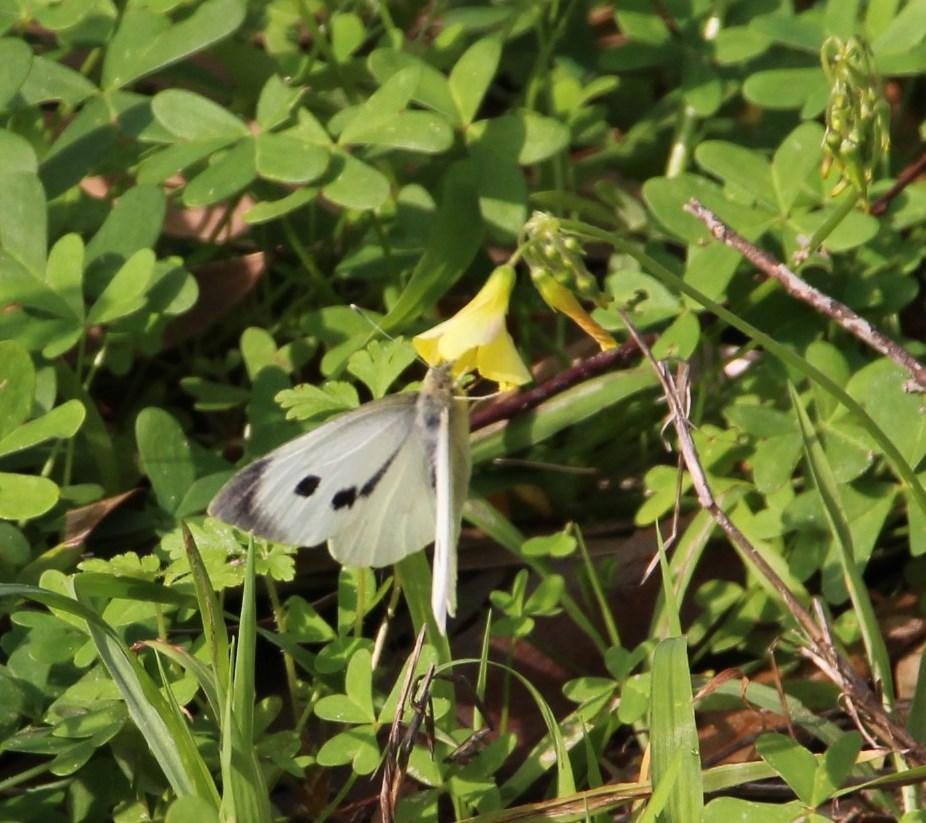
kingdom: Animalia
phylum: Arthropoda
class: Insecta
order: Lepidoptera
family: Pieridae
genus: Pieris
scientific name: Pieris brassicae
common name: Large white
